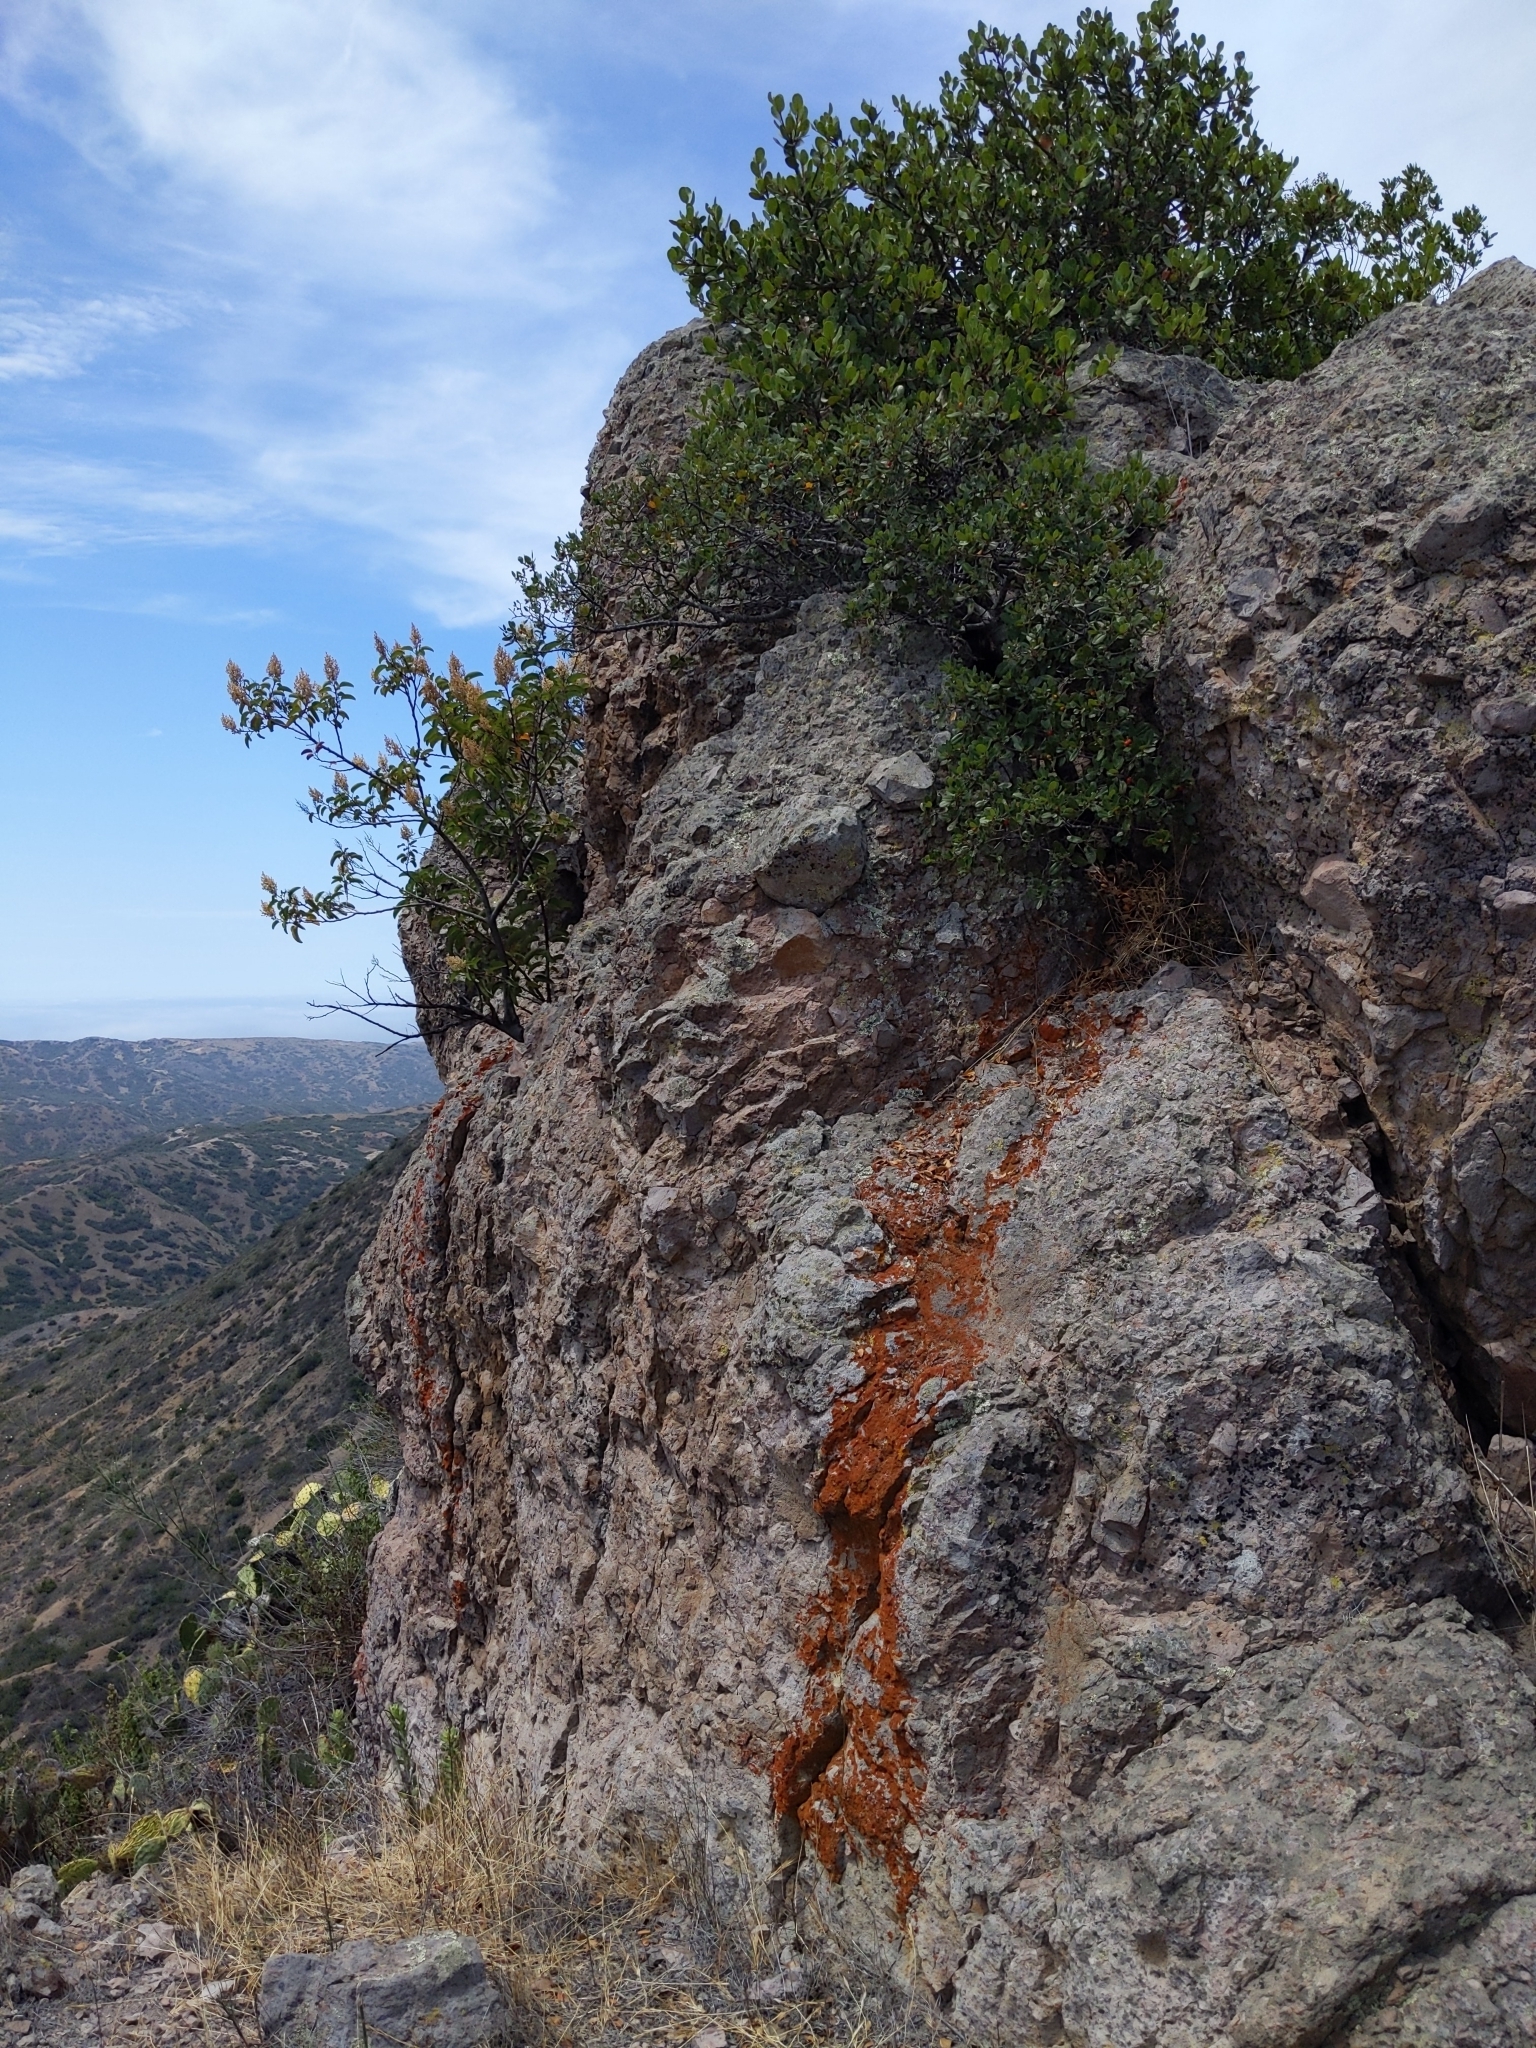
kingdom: Plantae
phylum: Tracheophyta
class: Magnoliopsida
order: Rosales
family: Rhamnaceae
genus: Endotropis
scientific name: Endotropis crocea
